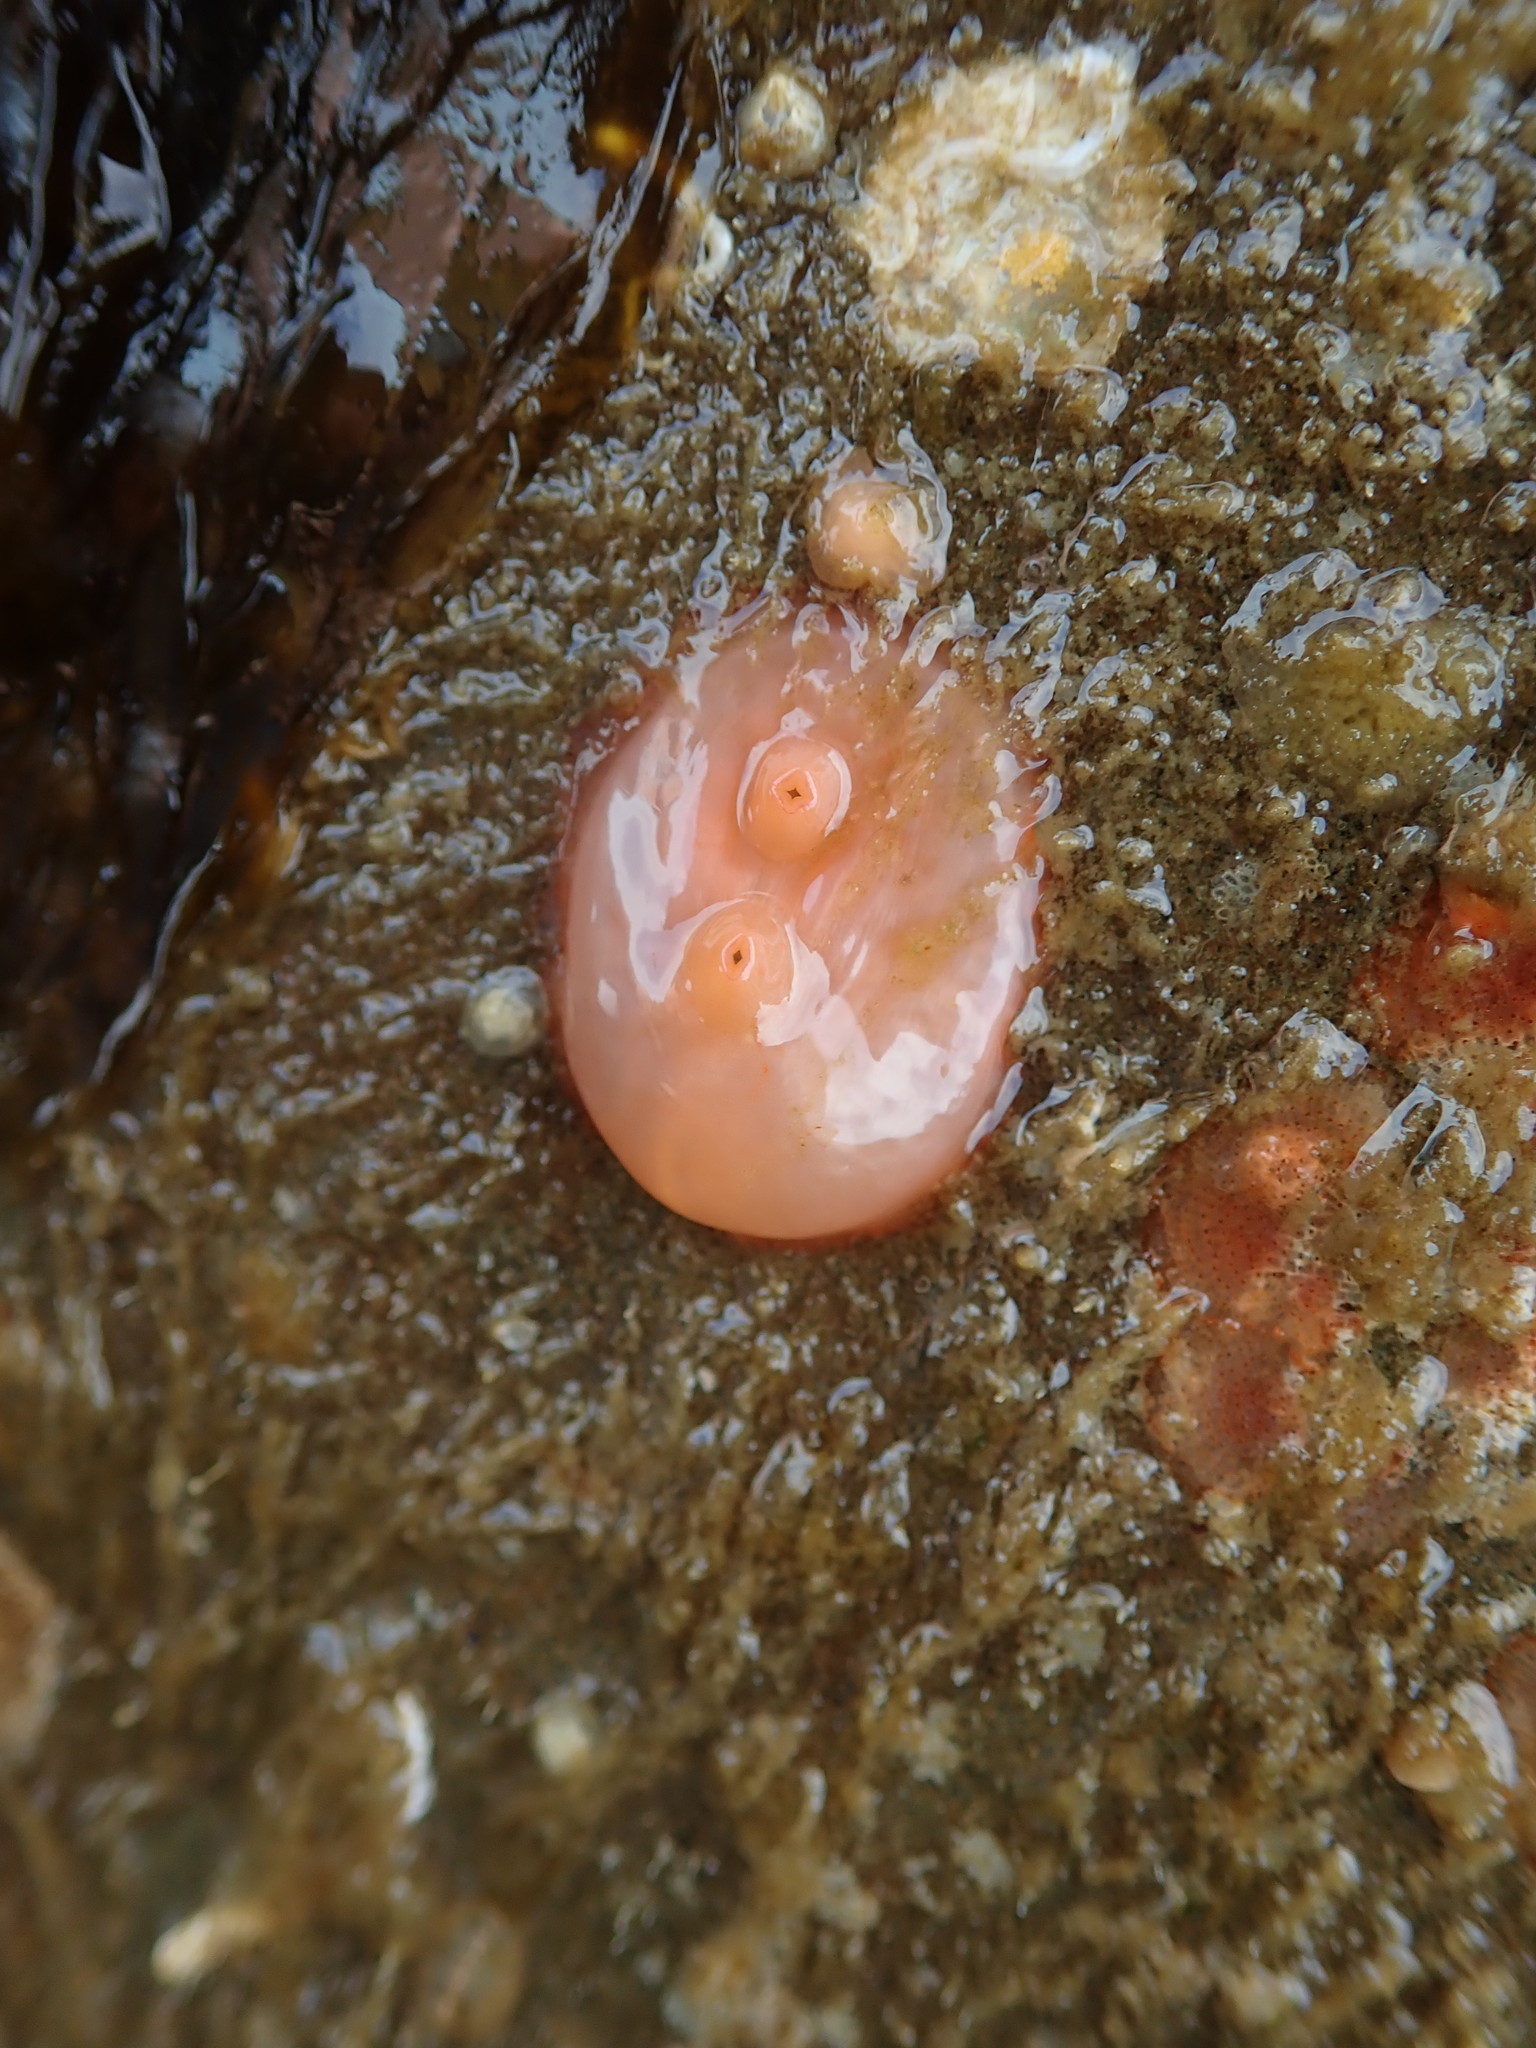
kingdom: Animalia
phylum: Chordata
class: Ascidiacea
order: Stolidobranchia
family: Styelidae
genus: Cnemidocarpa
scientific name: Cnemidocarpa finmarkiensis
